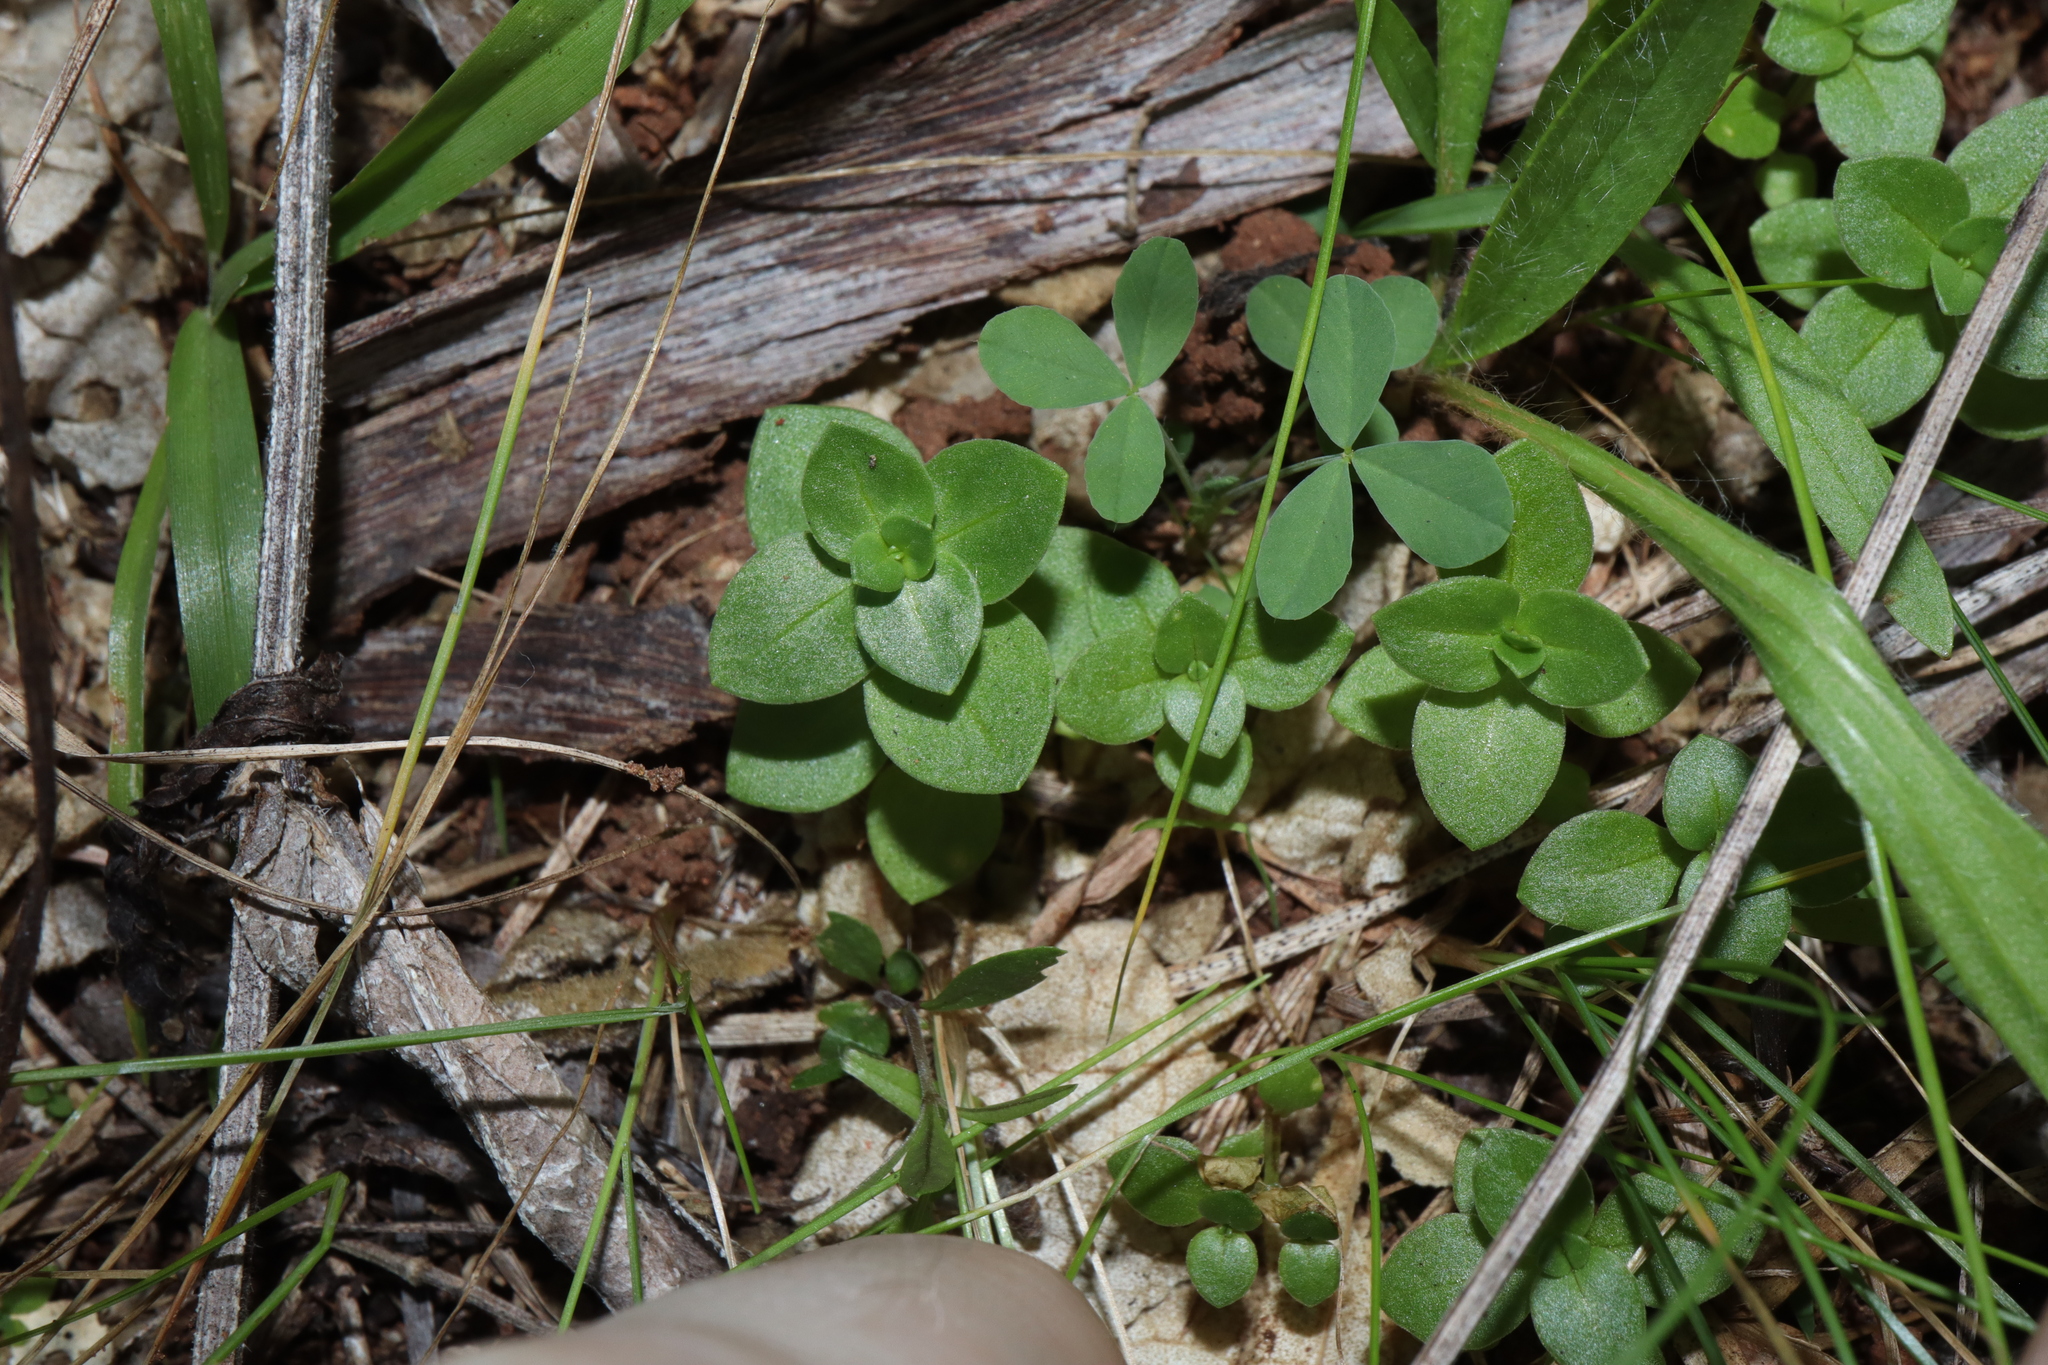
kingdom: Plantae
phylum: Tracheophyta
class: Magnoliopsida
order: Ericales
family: Primulaceae
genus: Lysimachia
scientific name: Lysimachia arvensis
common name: Scarlet pimpernel
